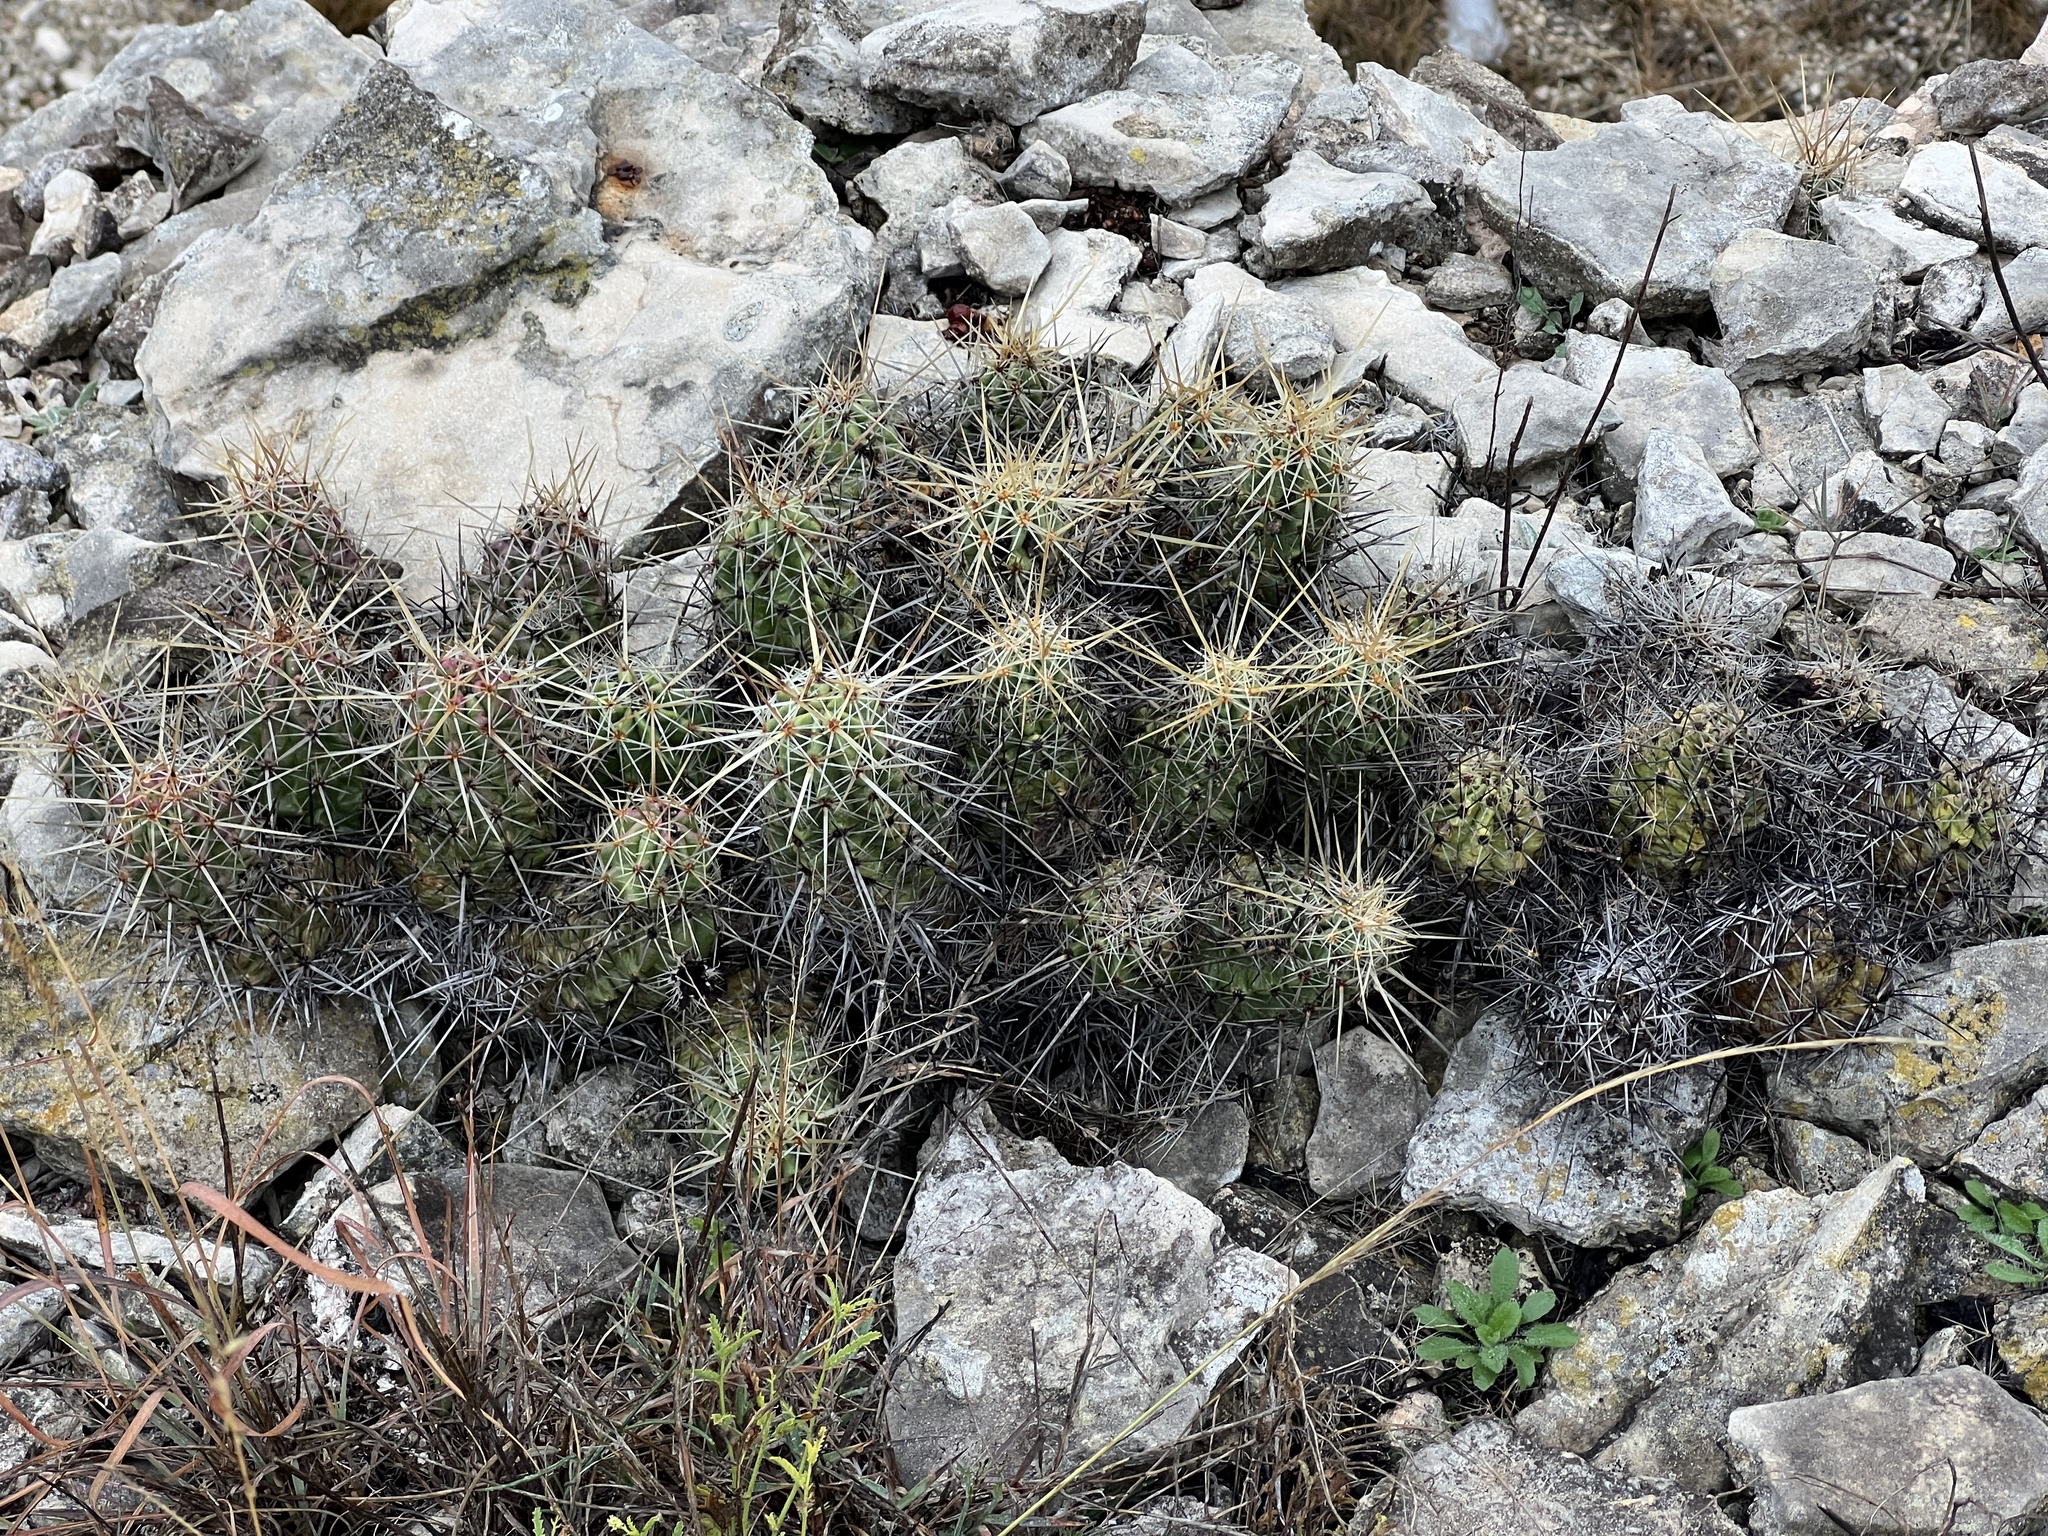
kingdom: Plantae
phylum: Tracheophyta
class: Magnoliopsida
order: Caryophyllales
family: Cactaceae
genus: Echinocereus
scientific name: Echinocereus enneacanthus
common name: Pitaya
